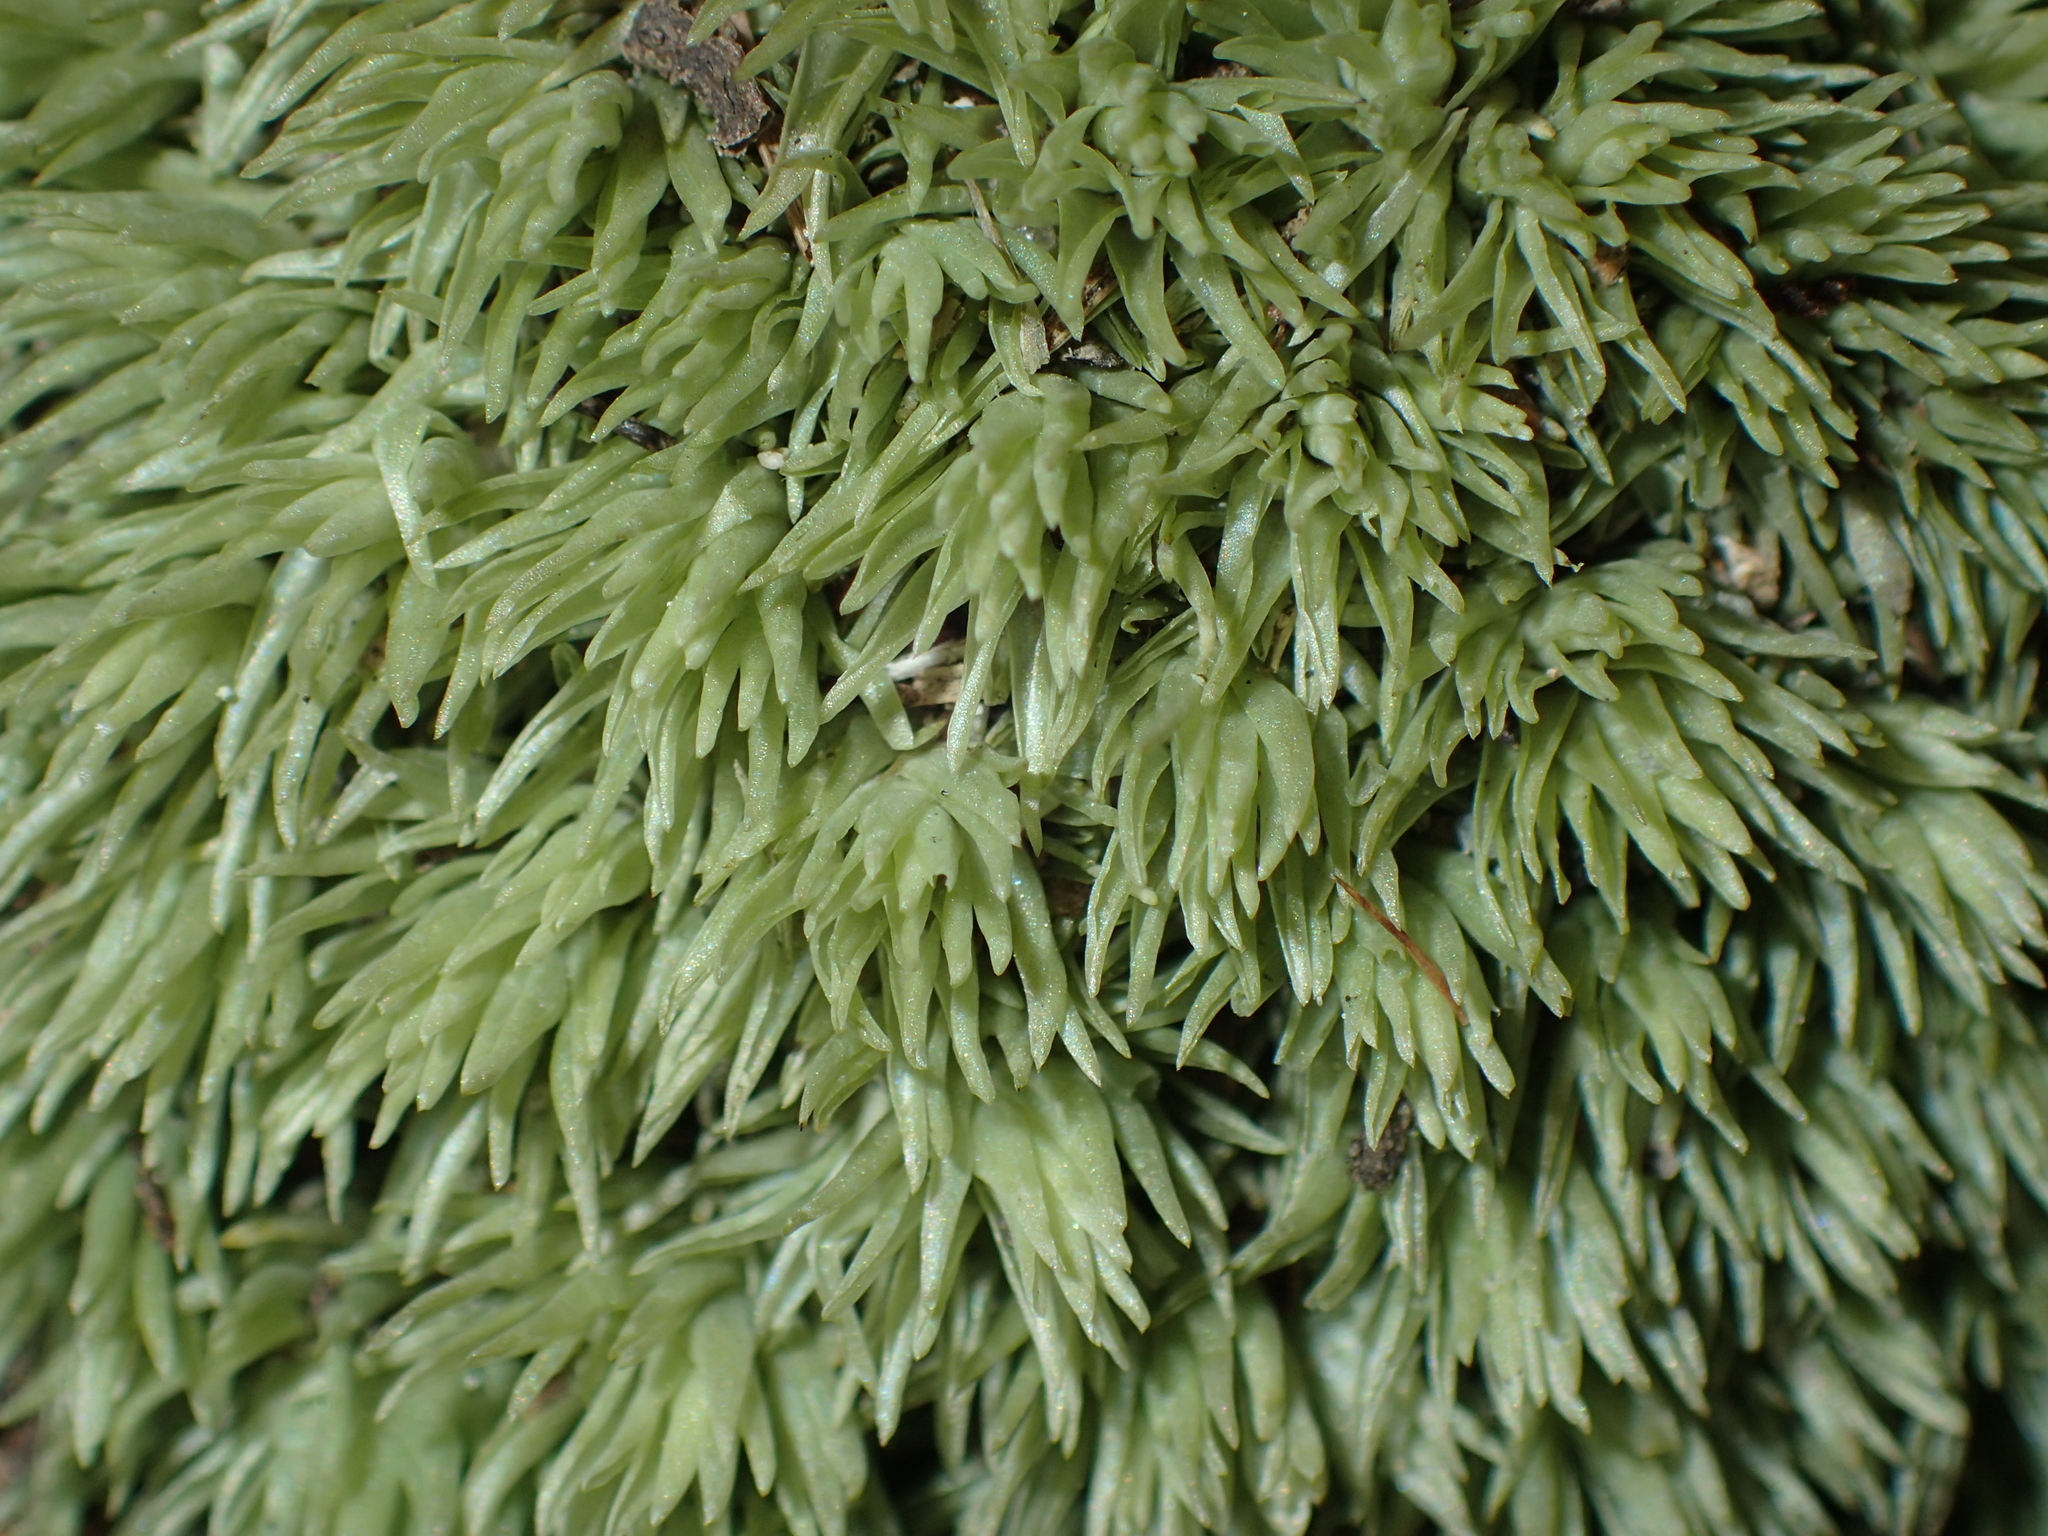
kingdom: Plantae
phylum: Bryophyta
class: Bryopsida
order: Dicranales
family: Leucobryaceae
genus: Leucobryum
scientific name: Leucobryum glaucum
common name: Large white-moss
